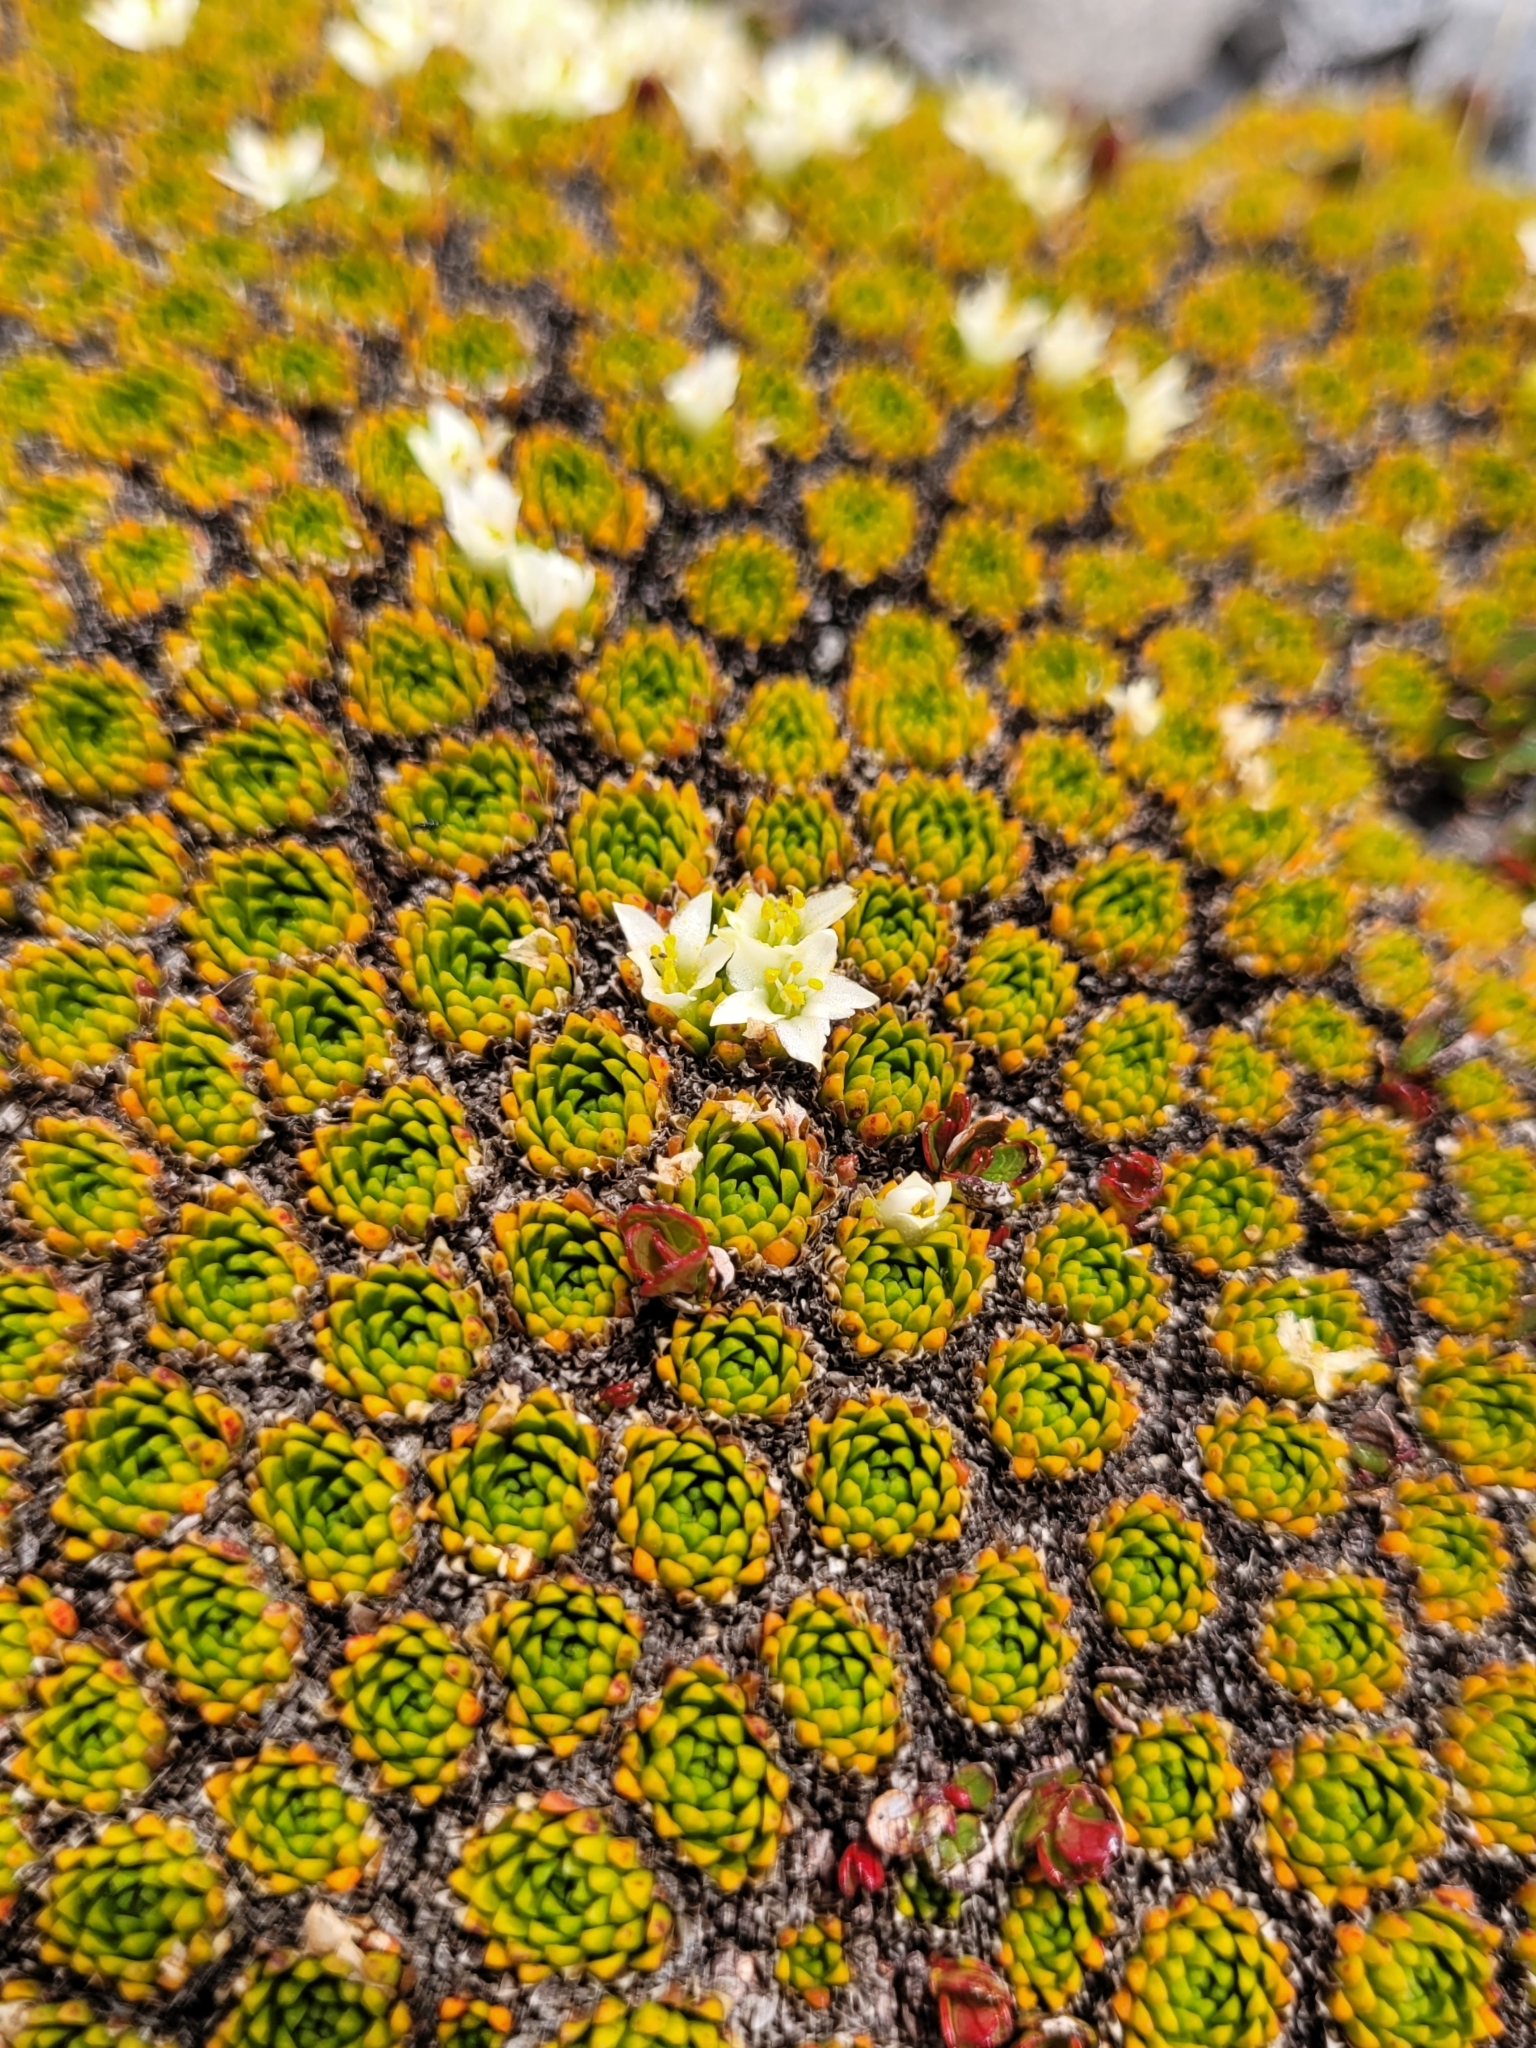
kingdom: Plantae
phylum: Tracheophyta
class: Magnoliopsida
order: Caryophyllales
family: Montiaceae
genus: Hectorella
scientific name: Hectorella caespitosa
